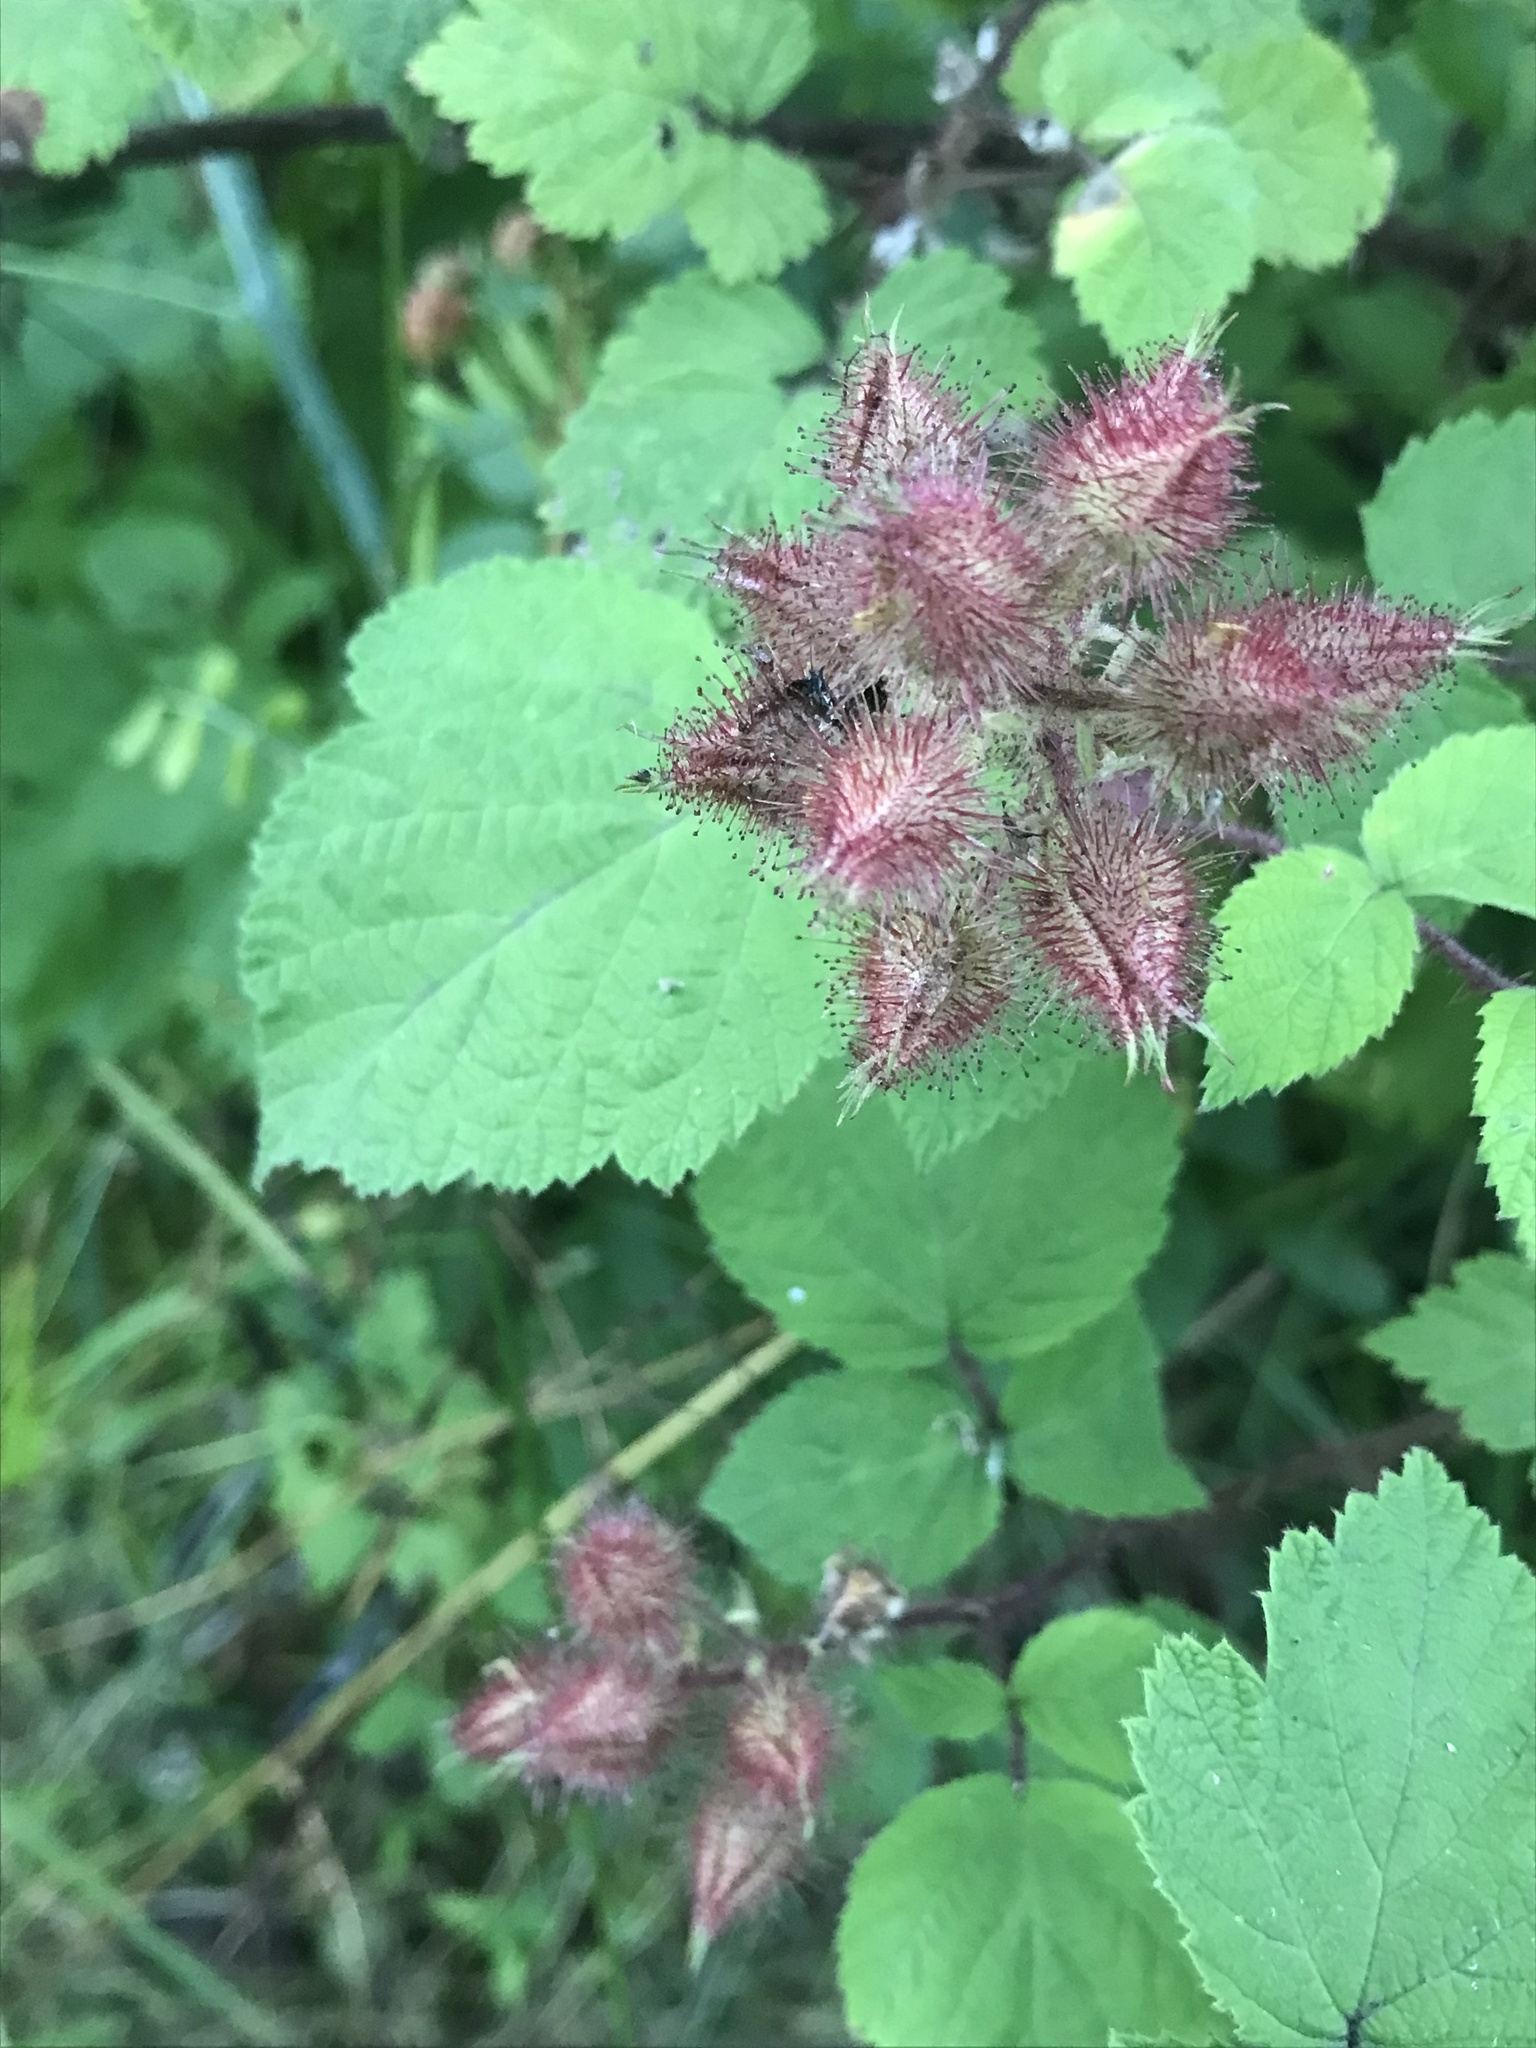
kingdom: Plantae
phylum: Tracheophyta
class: Magnoliopsida
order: Rosales
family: Rosaceae
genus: Rubus
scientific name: Rubus phoenicolasius
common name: Japanese wineberry
